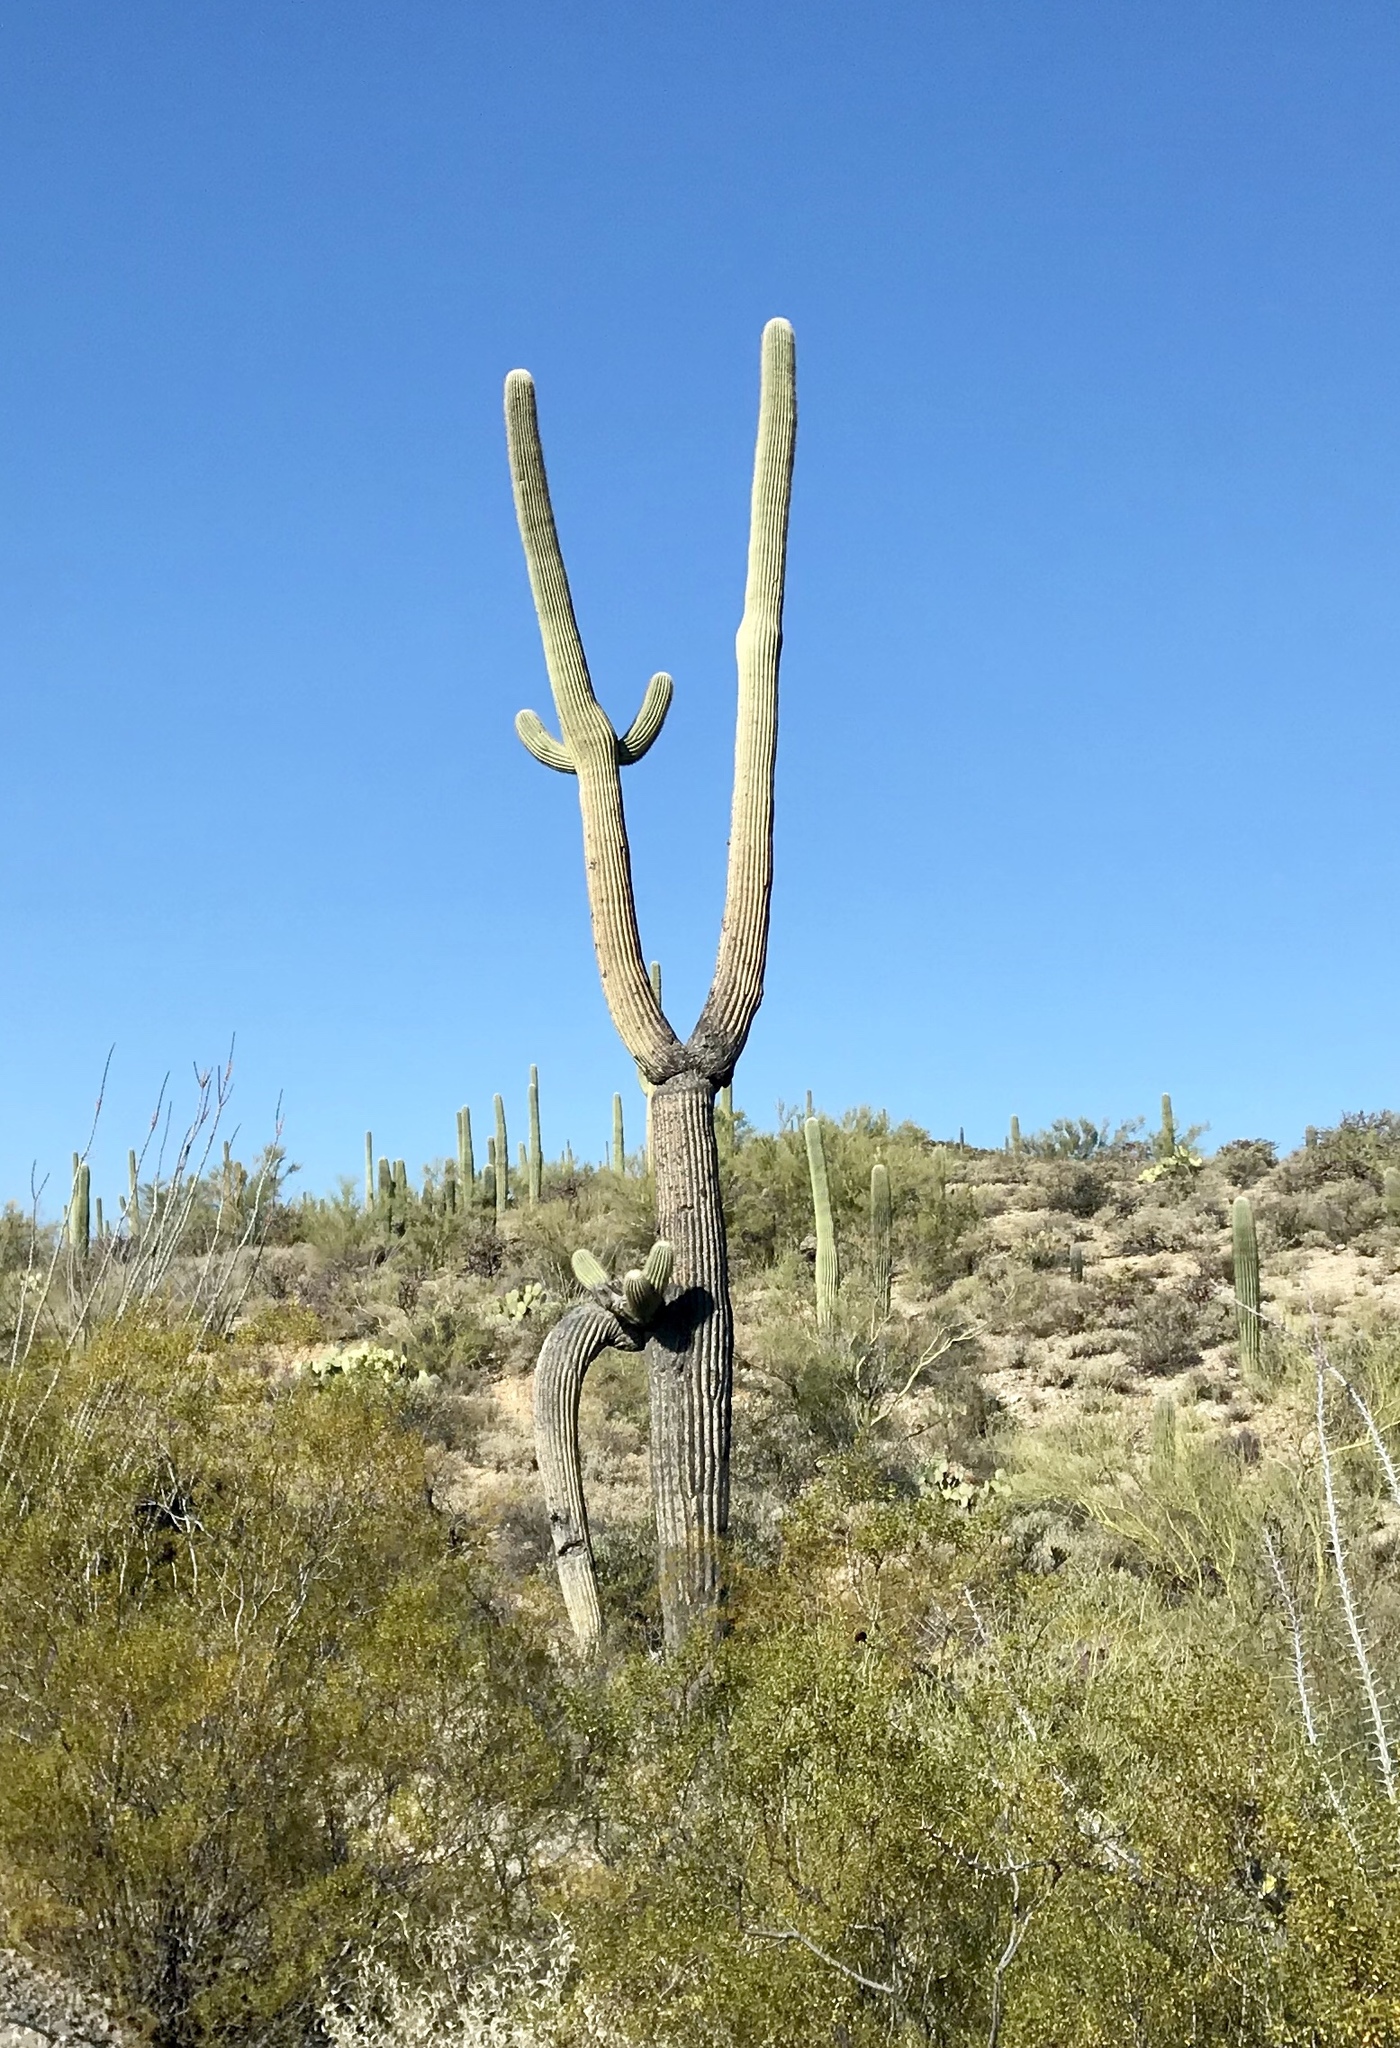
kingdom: Plantae
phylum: Tracheophyta
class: Magnoliopsida
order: Caryophyllales
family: Cactaceae
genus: Carnegiea
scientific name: Carnegiea gigantea
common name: Saguaro
